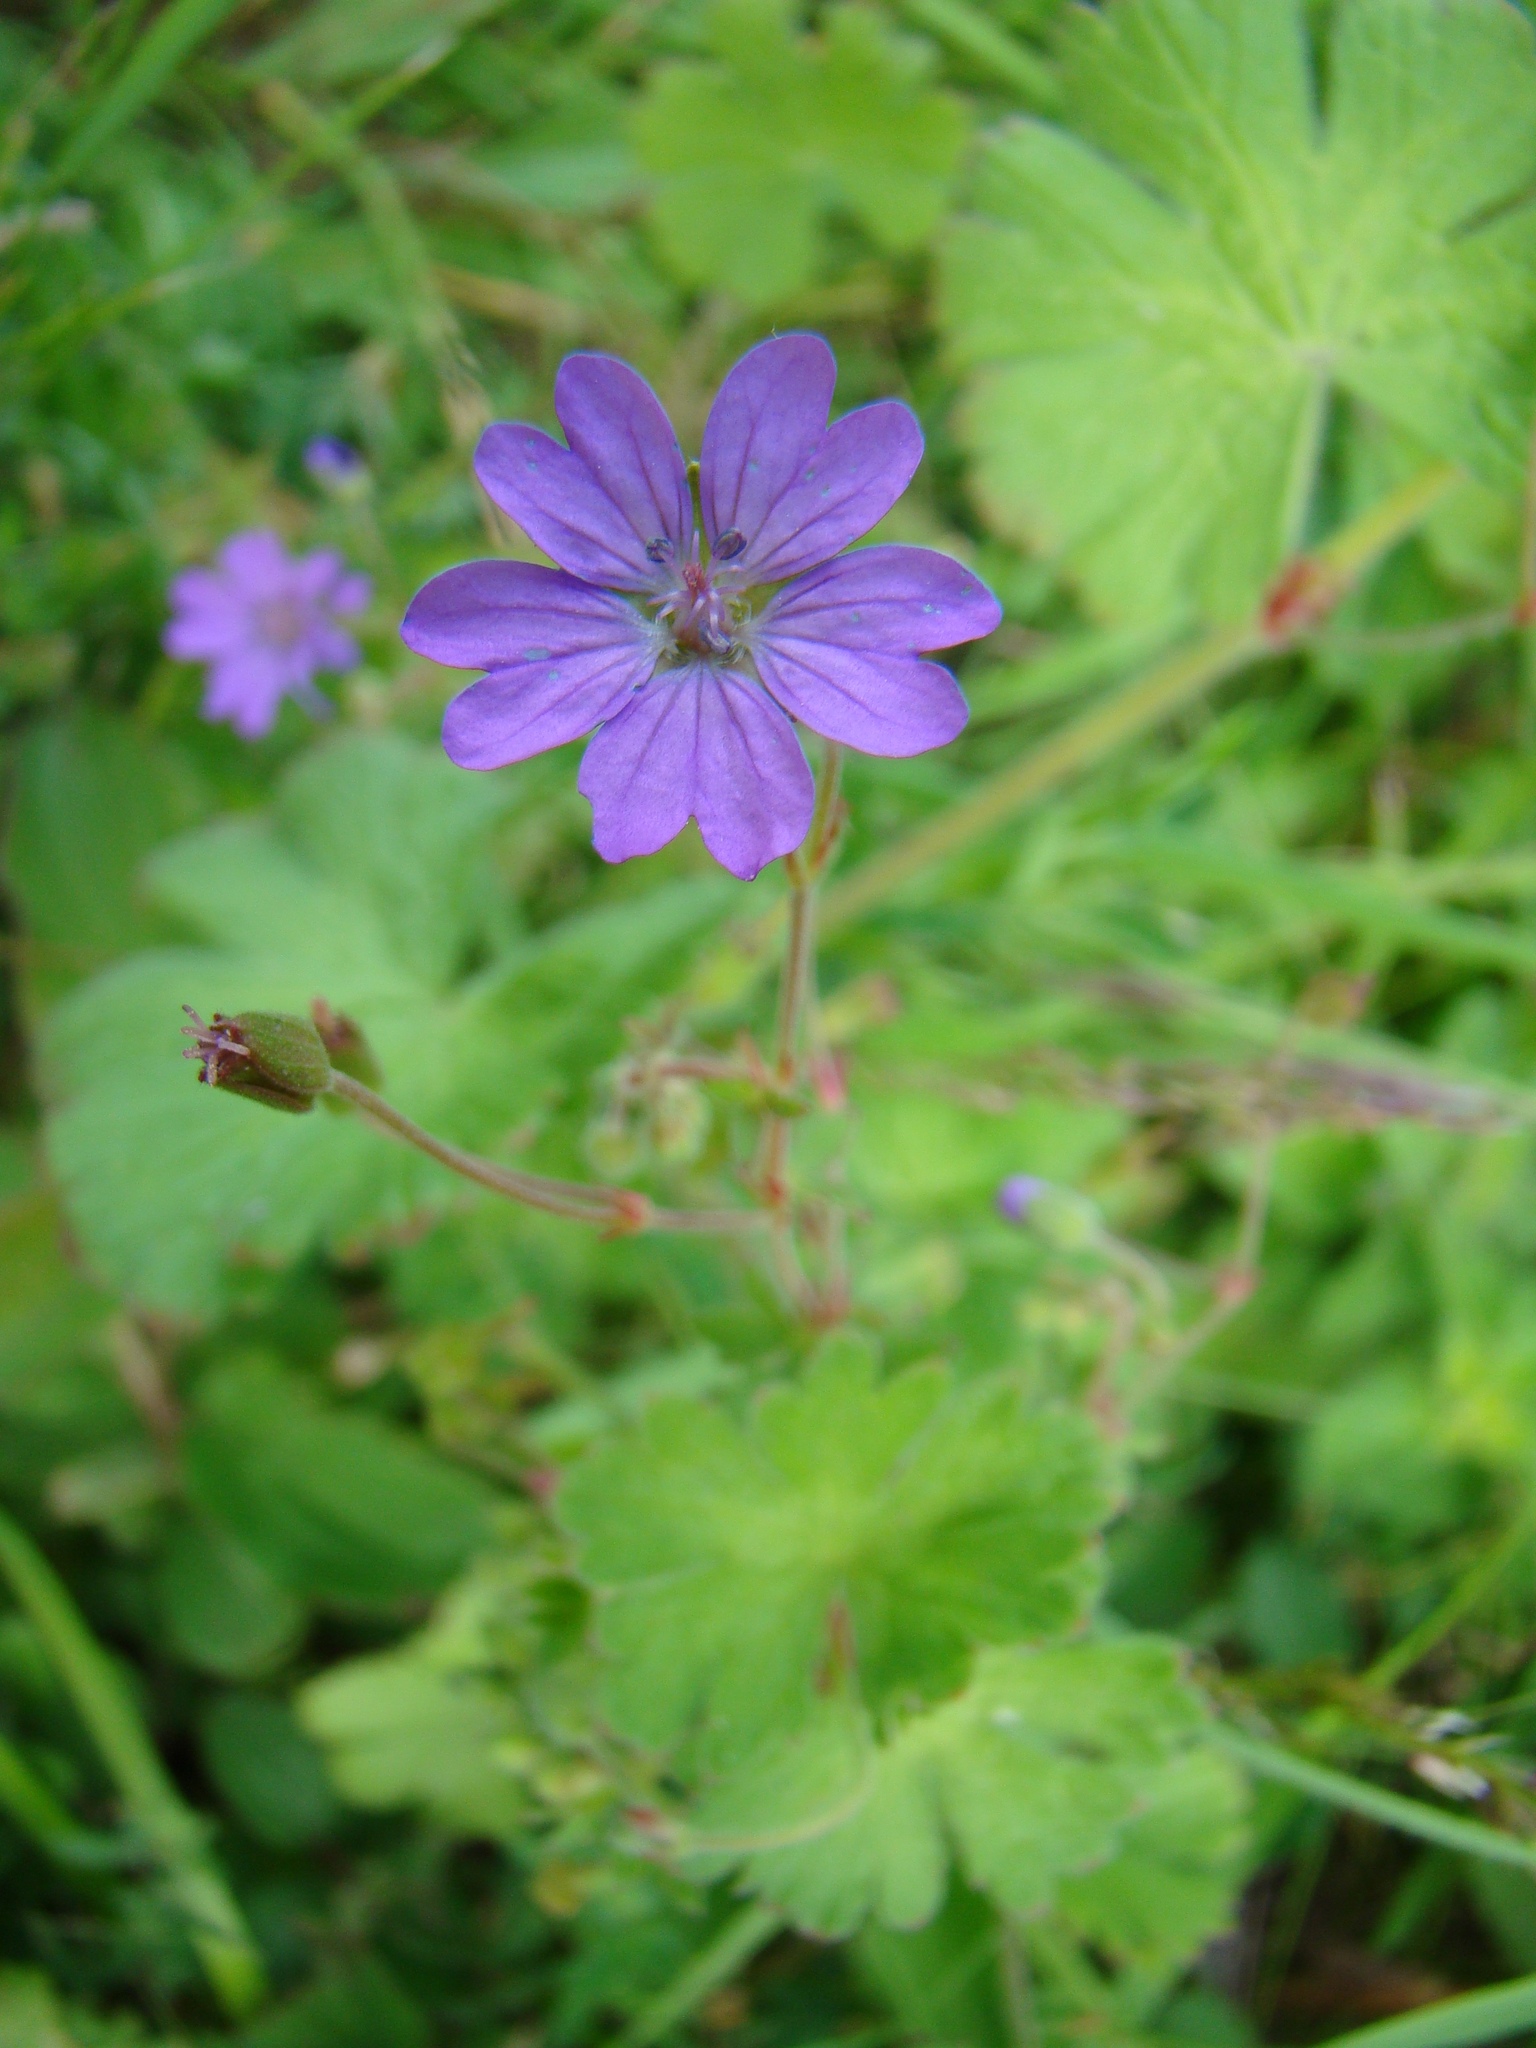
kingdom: Plantae
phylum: Tracheophyta
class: Magnoliopsida
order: Geraniales
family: Geraniaceae
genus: Geranium
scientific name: Geranium pyrenaicum
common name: Hedgerow crane's-bill
